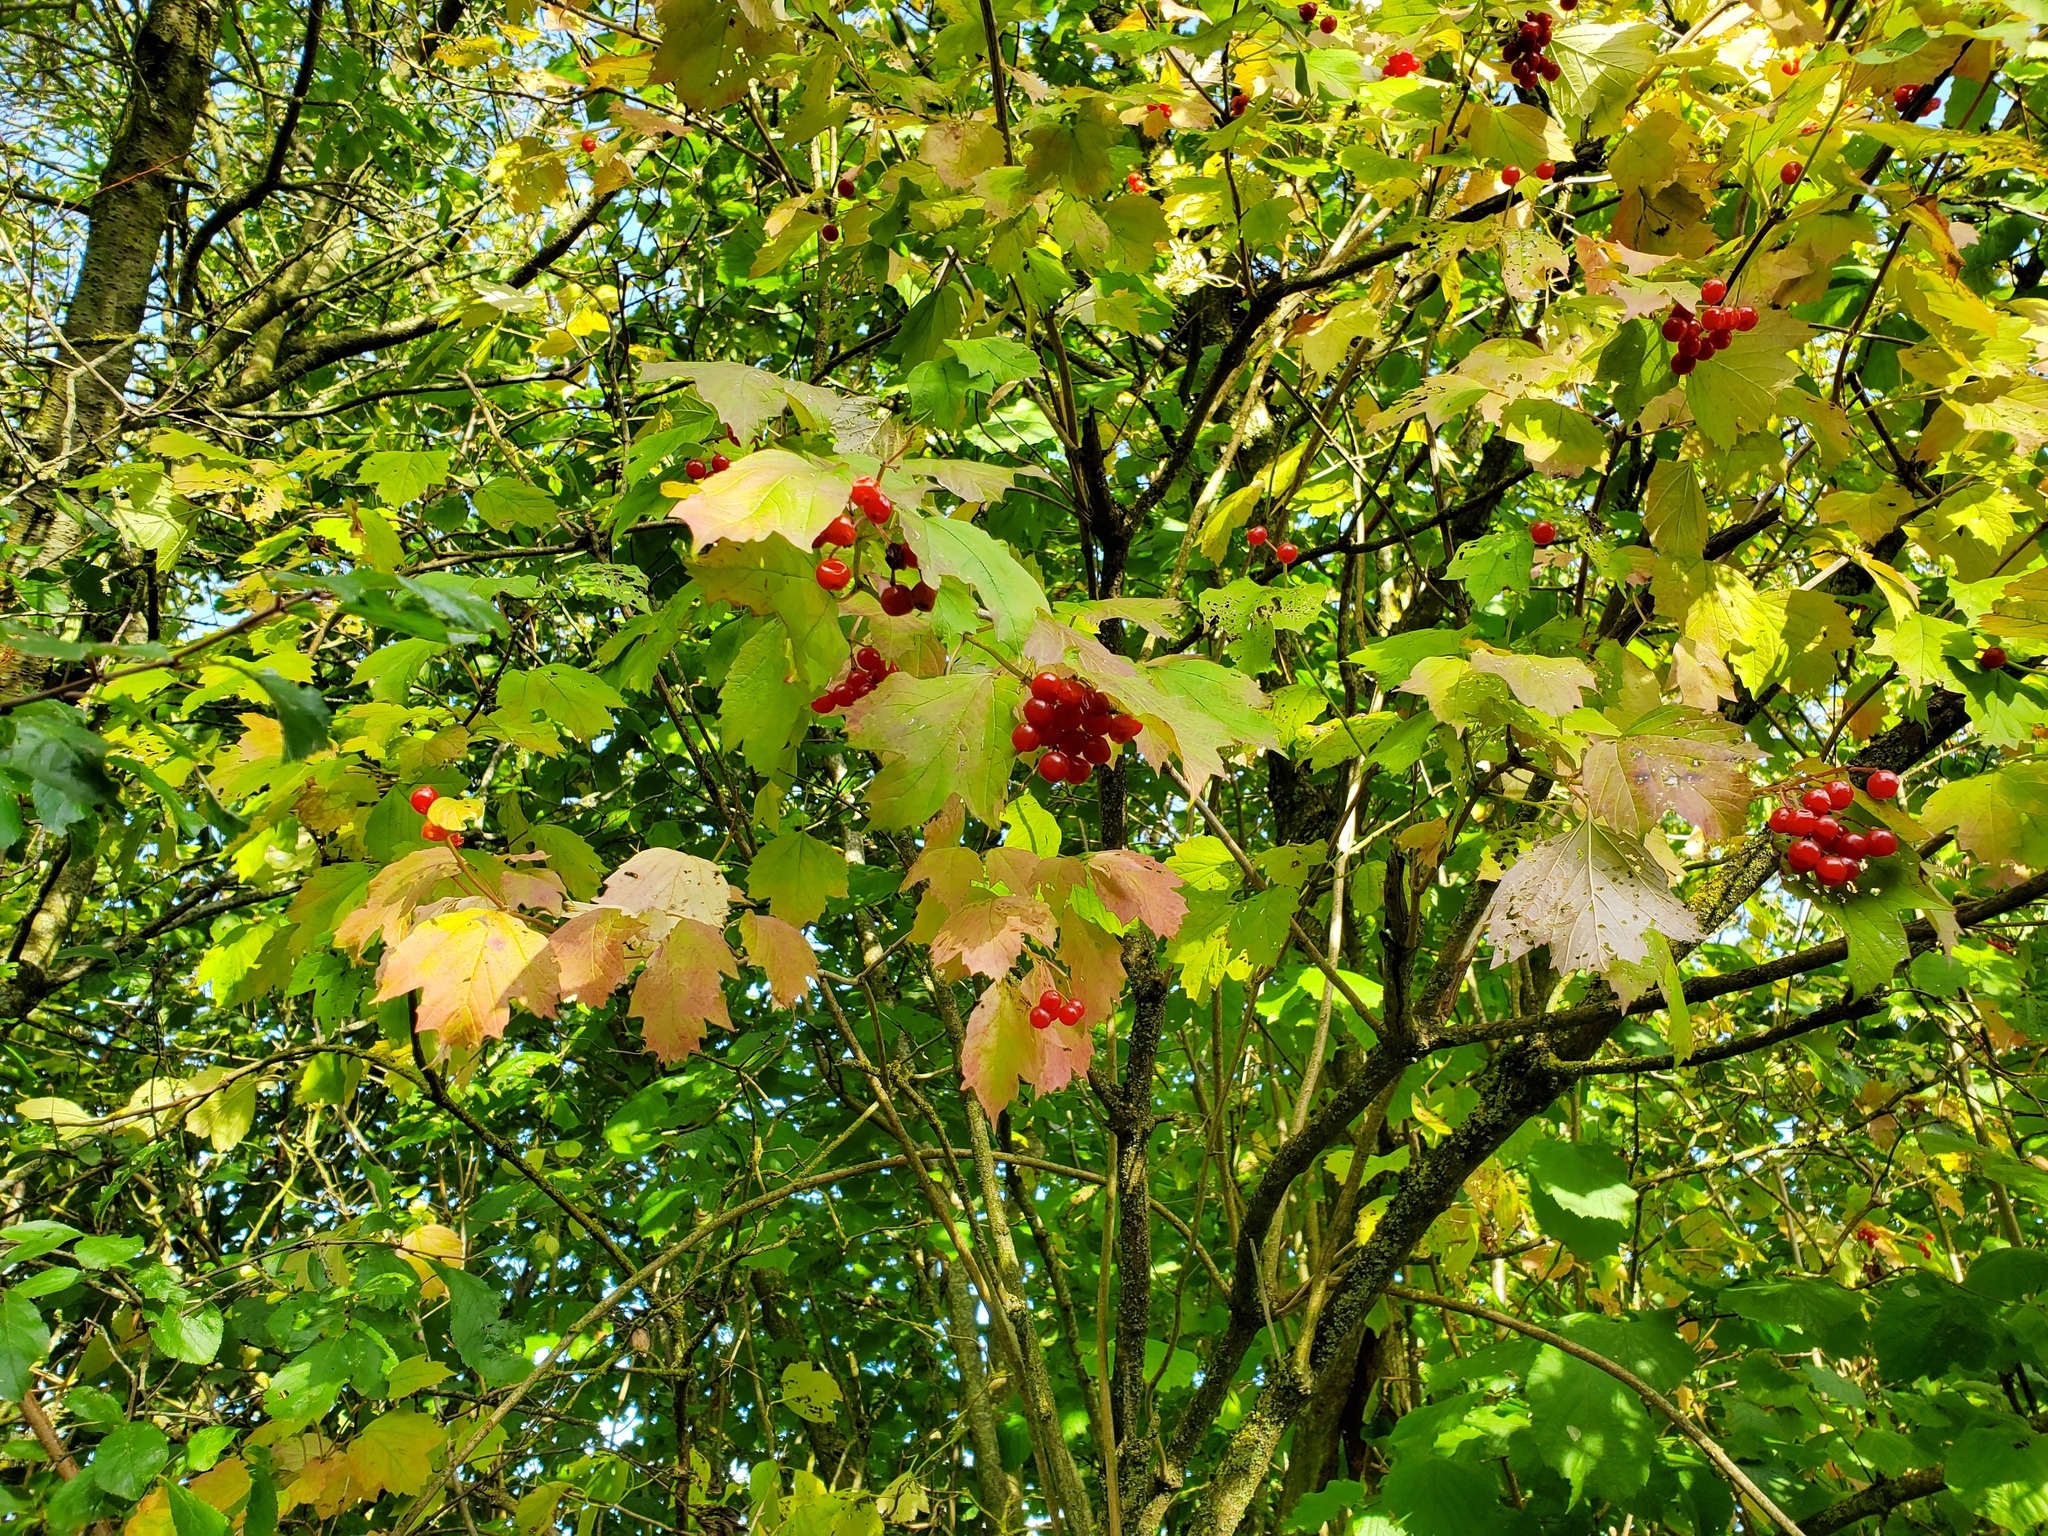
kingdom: Plantae
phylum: Tracheophyta
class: Magnoliopsida
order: Dipsacales
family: Viburnaceae
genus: Viburnum
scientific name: Viburnum opulus
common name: Guelder-rose
